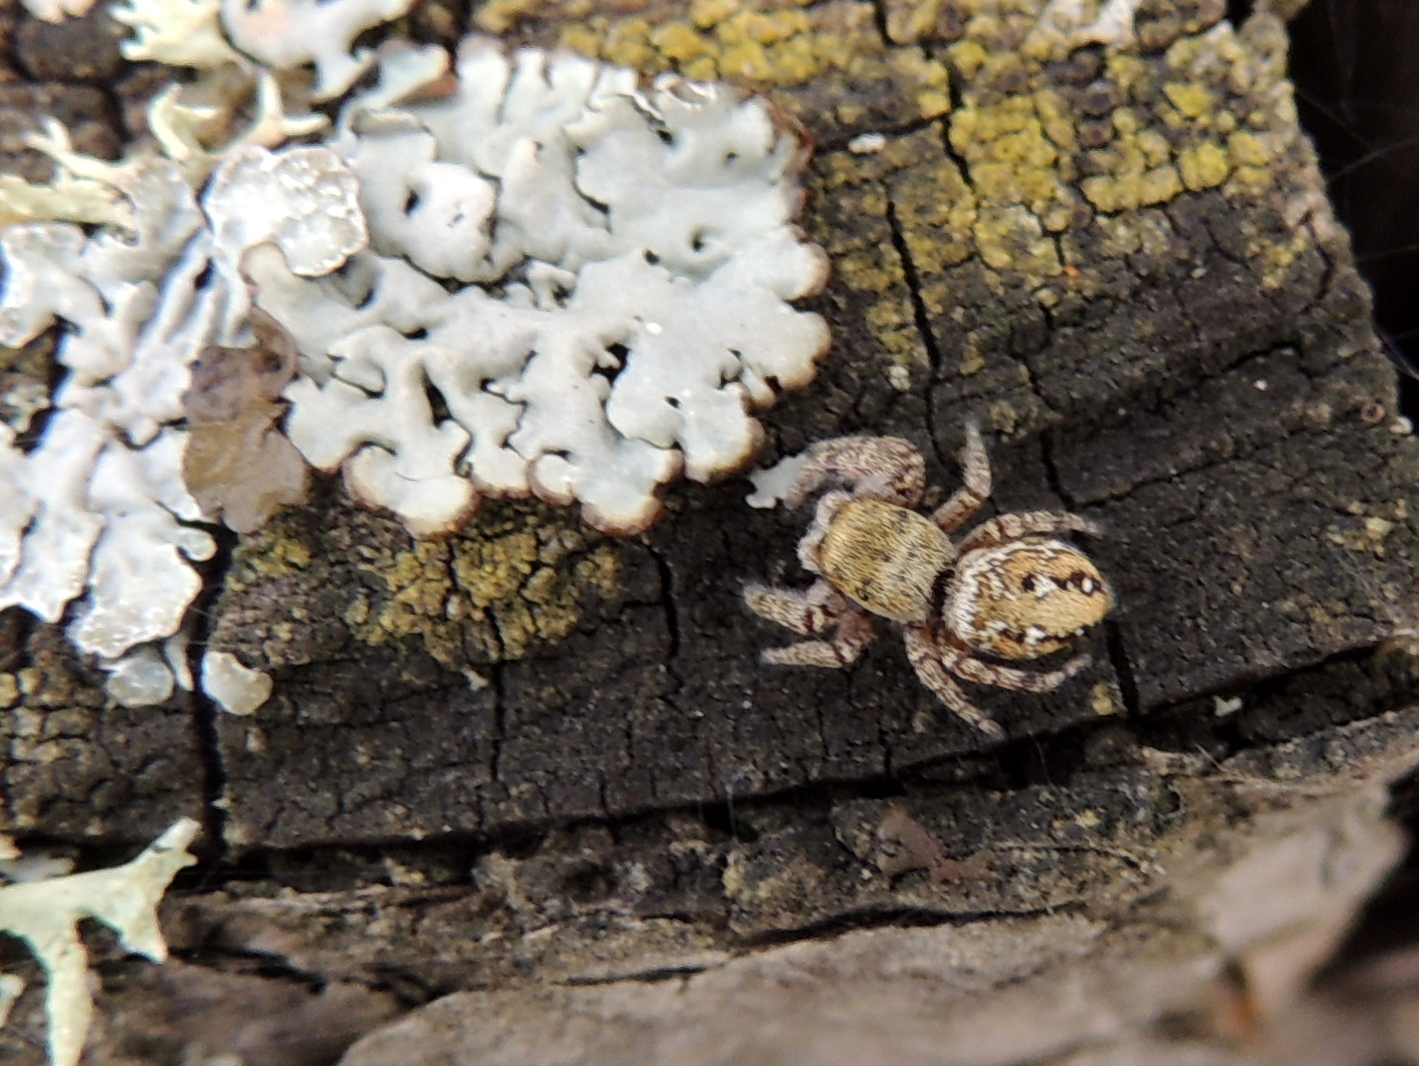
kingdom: Animalia
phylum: Arthropoda
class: Arachnida
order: Araneae
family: Salticidae
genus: Dendryphantes
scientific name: Dendryphantes rudis
